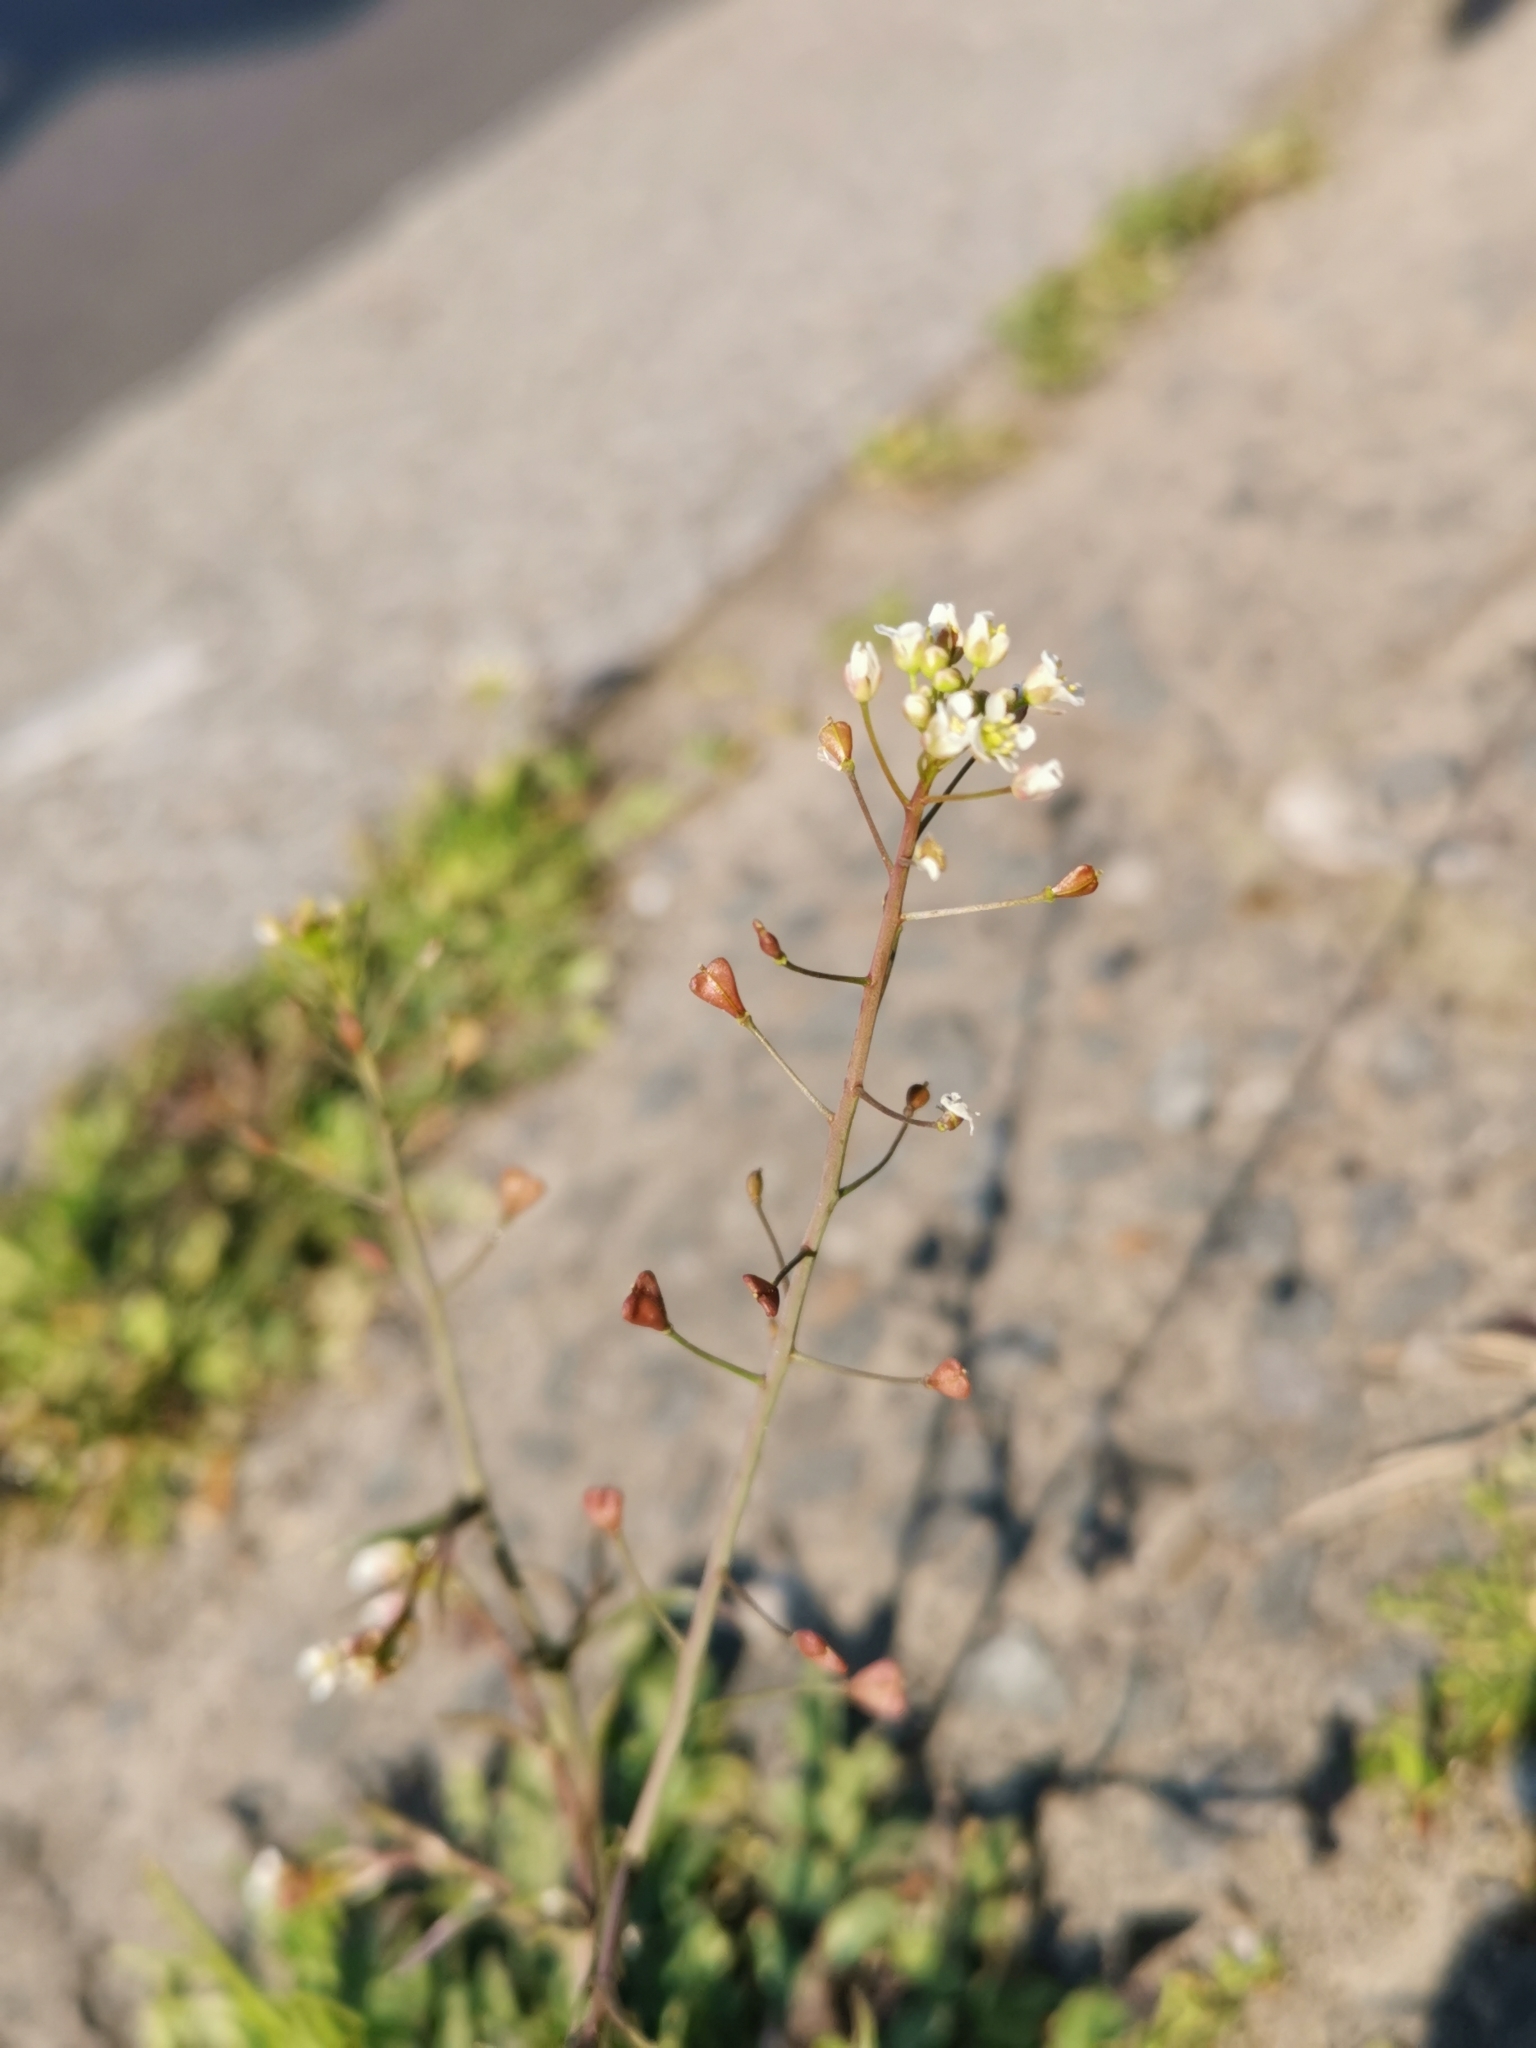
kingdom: Plantae
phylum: Tracheophyta
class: Magnoliopsida
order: Brassicales
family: Brassicaceae
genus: Capsella
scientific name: Capsella bursa-pastoris
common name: Shepherd's purse
